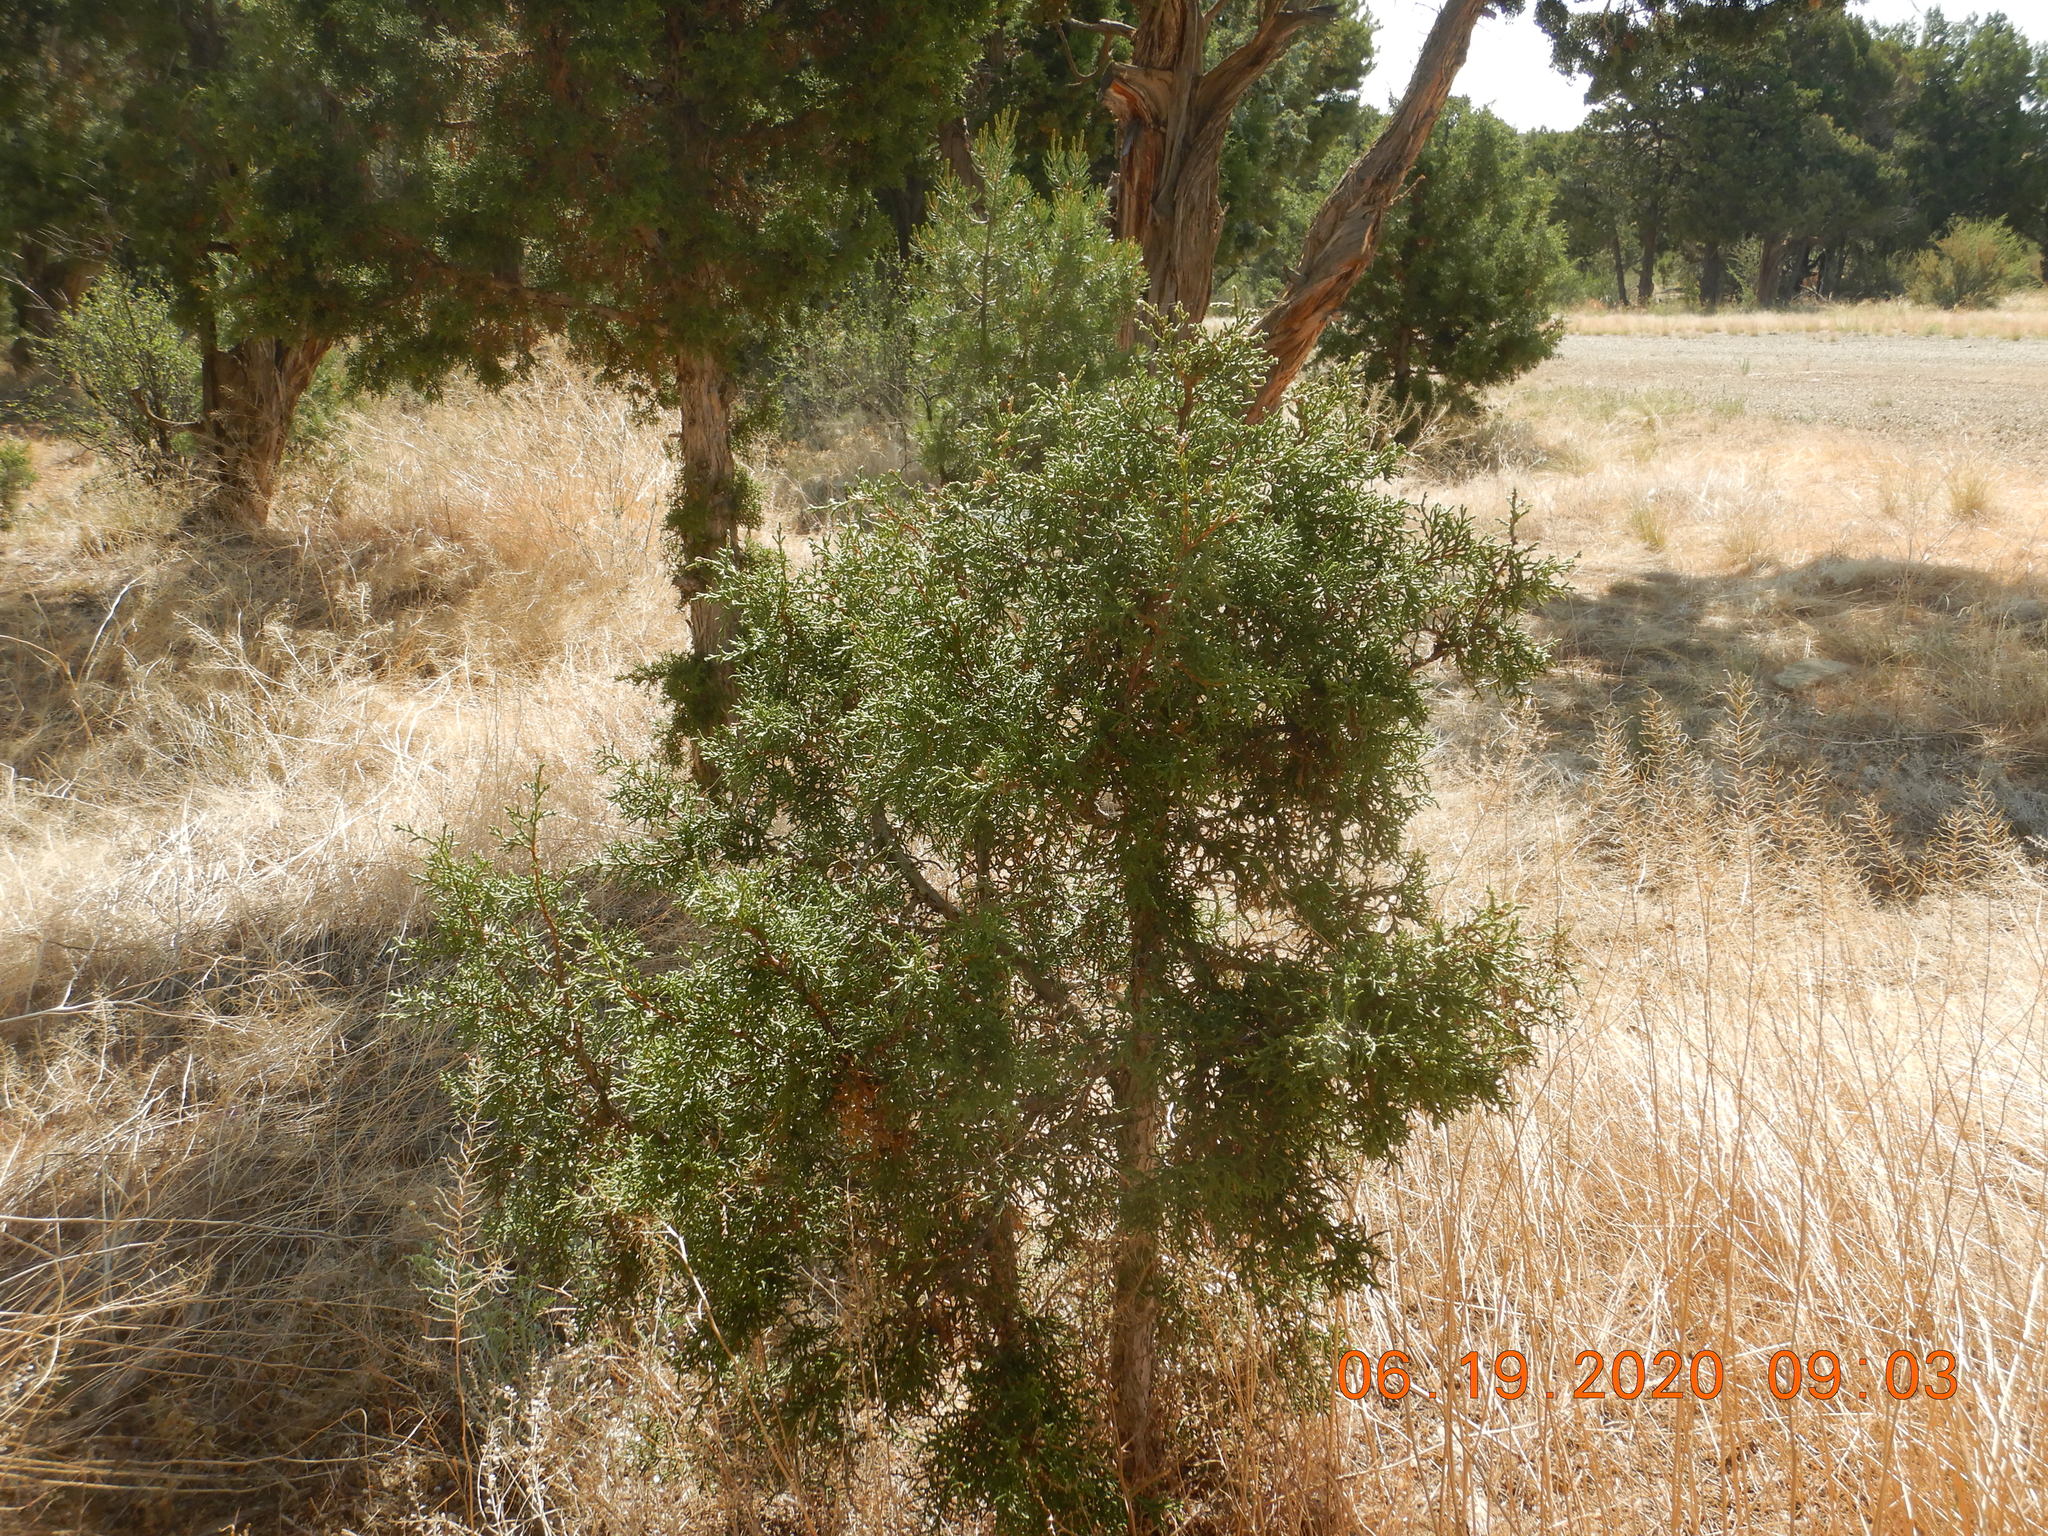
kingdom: Plantae
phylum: Tracheophyta
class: Pinopsida
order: Pinales
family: Cupressaceae
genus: Juniperus
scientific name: Juniperus osteosperma
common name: Utah juniper
